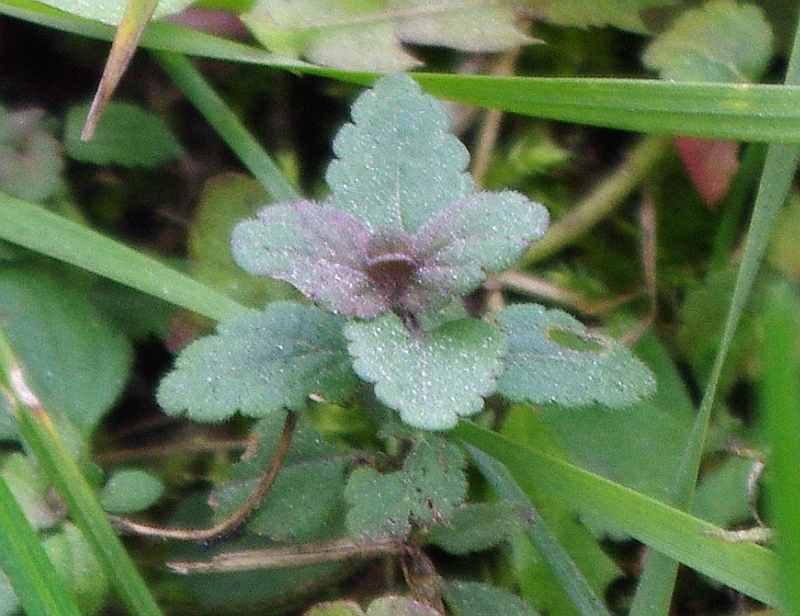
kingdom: Plantae
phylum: Tracheophyta
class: Magnoliopsida
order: Lamiales
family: Plantaginaceae
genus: Veronica
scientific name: Veronica chamaedrys
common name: Germander speedwell
